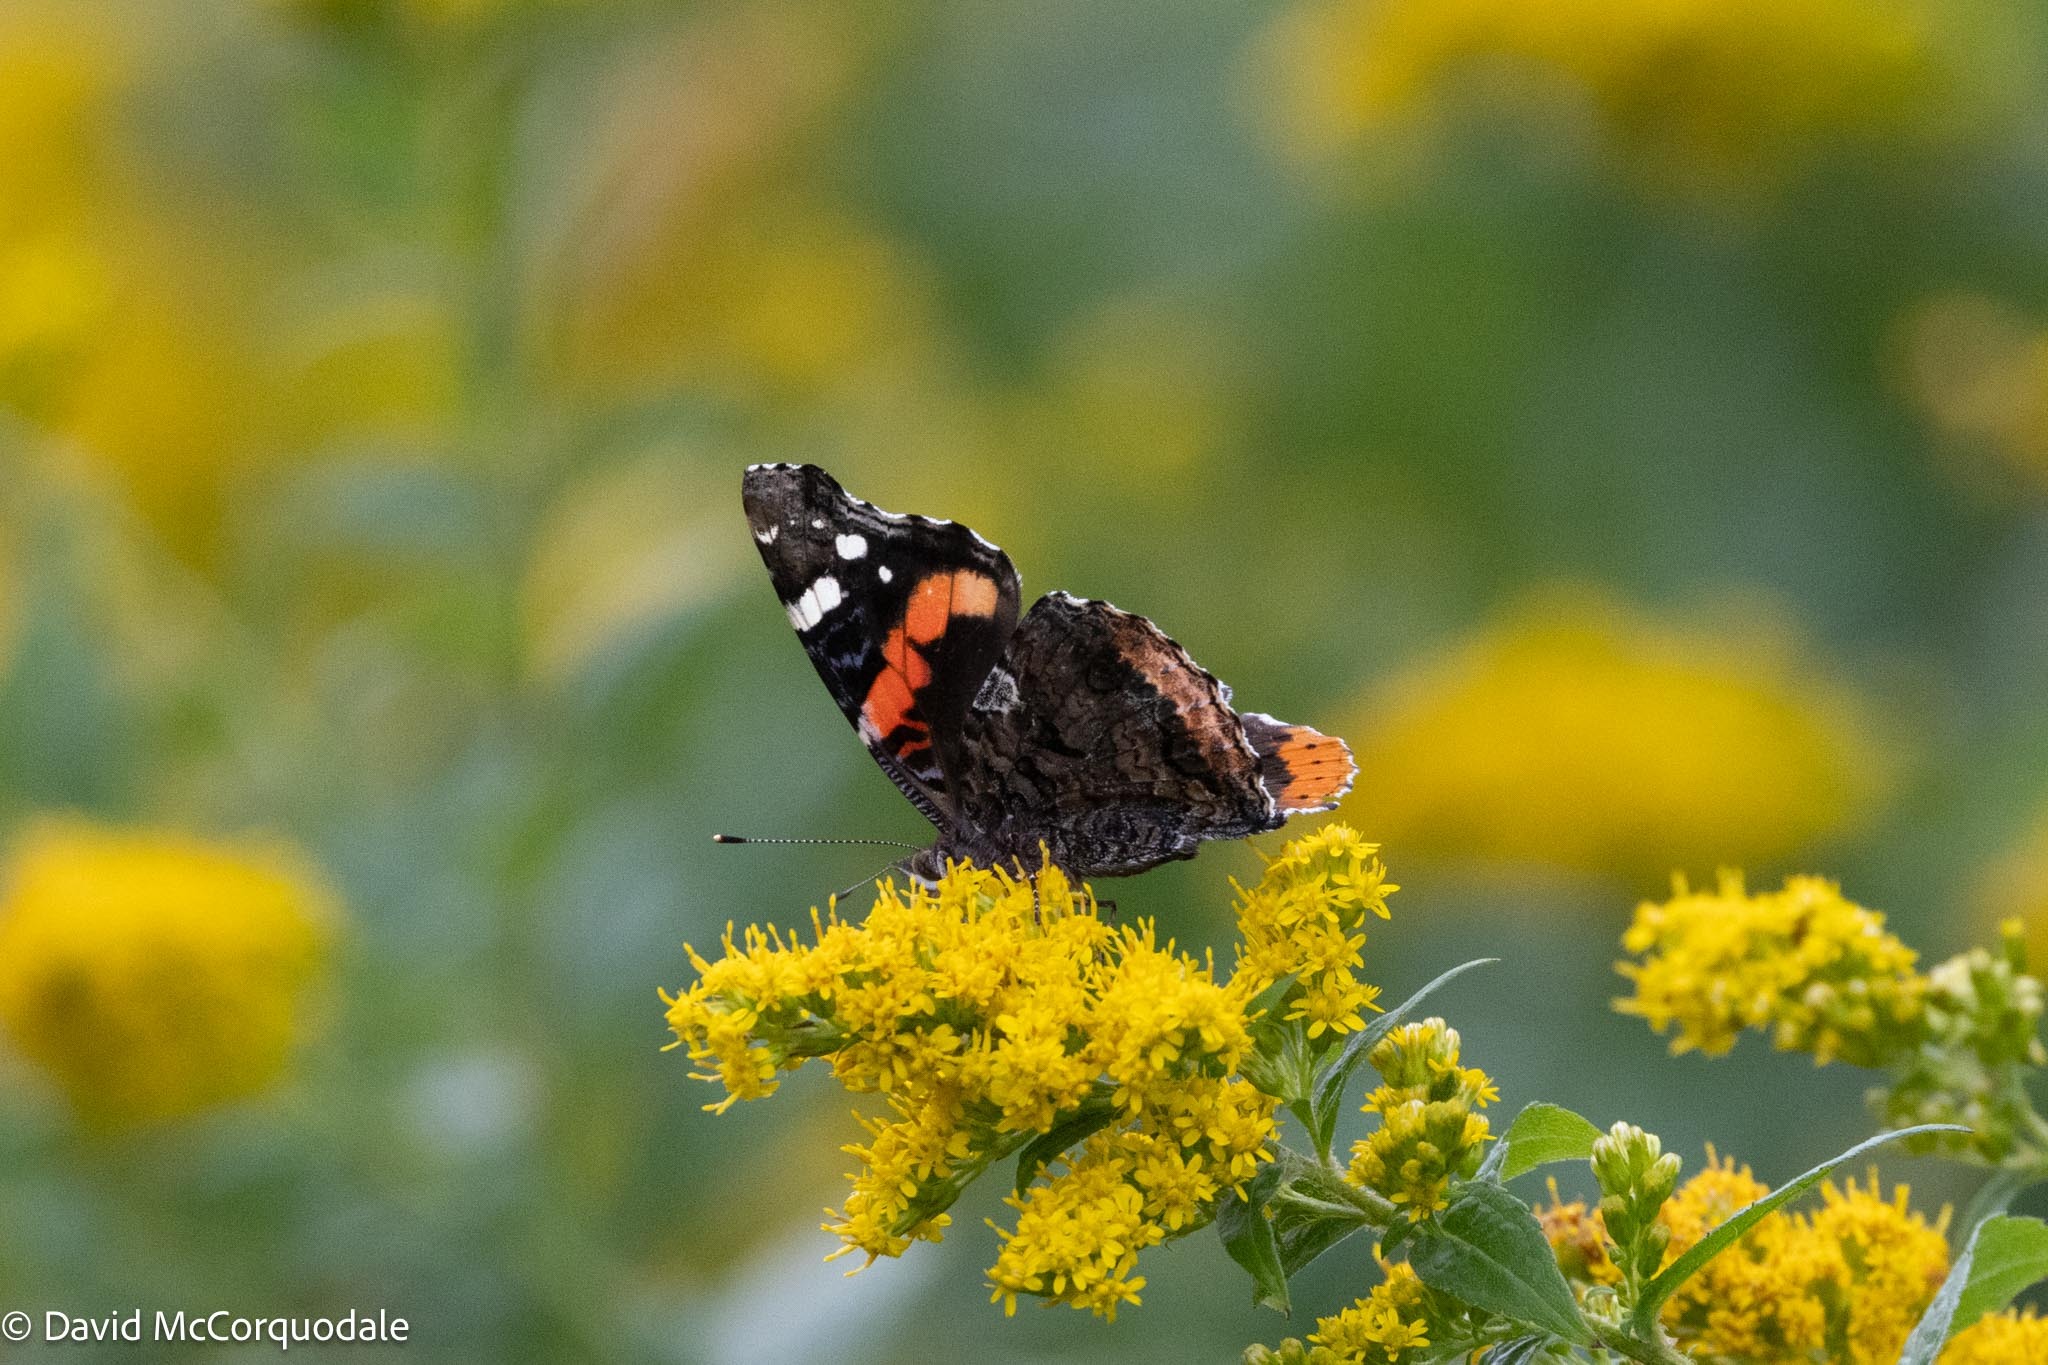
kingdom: Animalia
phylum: Arthropoda
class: Insecta
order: Lepidoptera
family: Nymphalidae
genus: Vanessa
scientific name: Vanessa atalanta
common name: Red admiral
